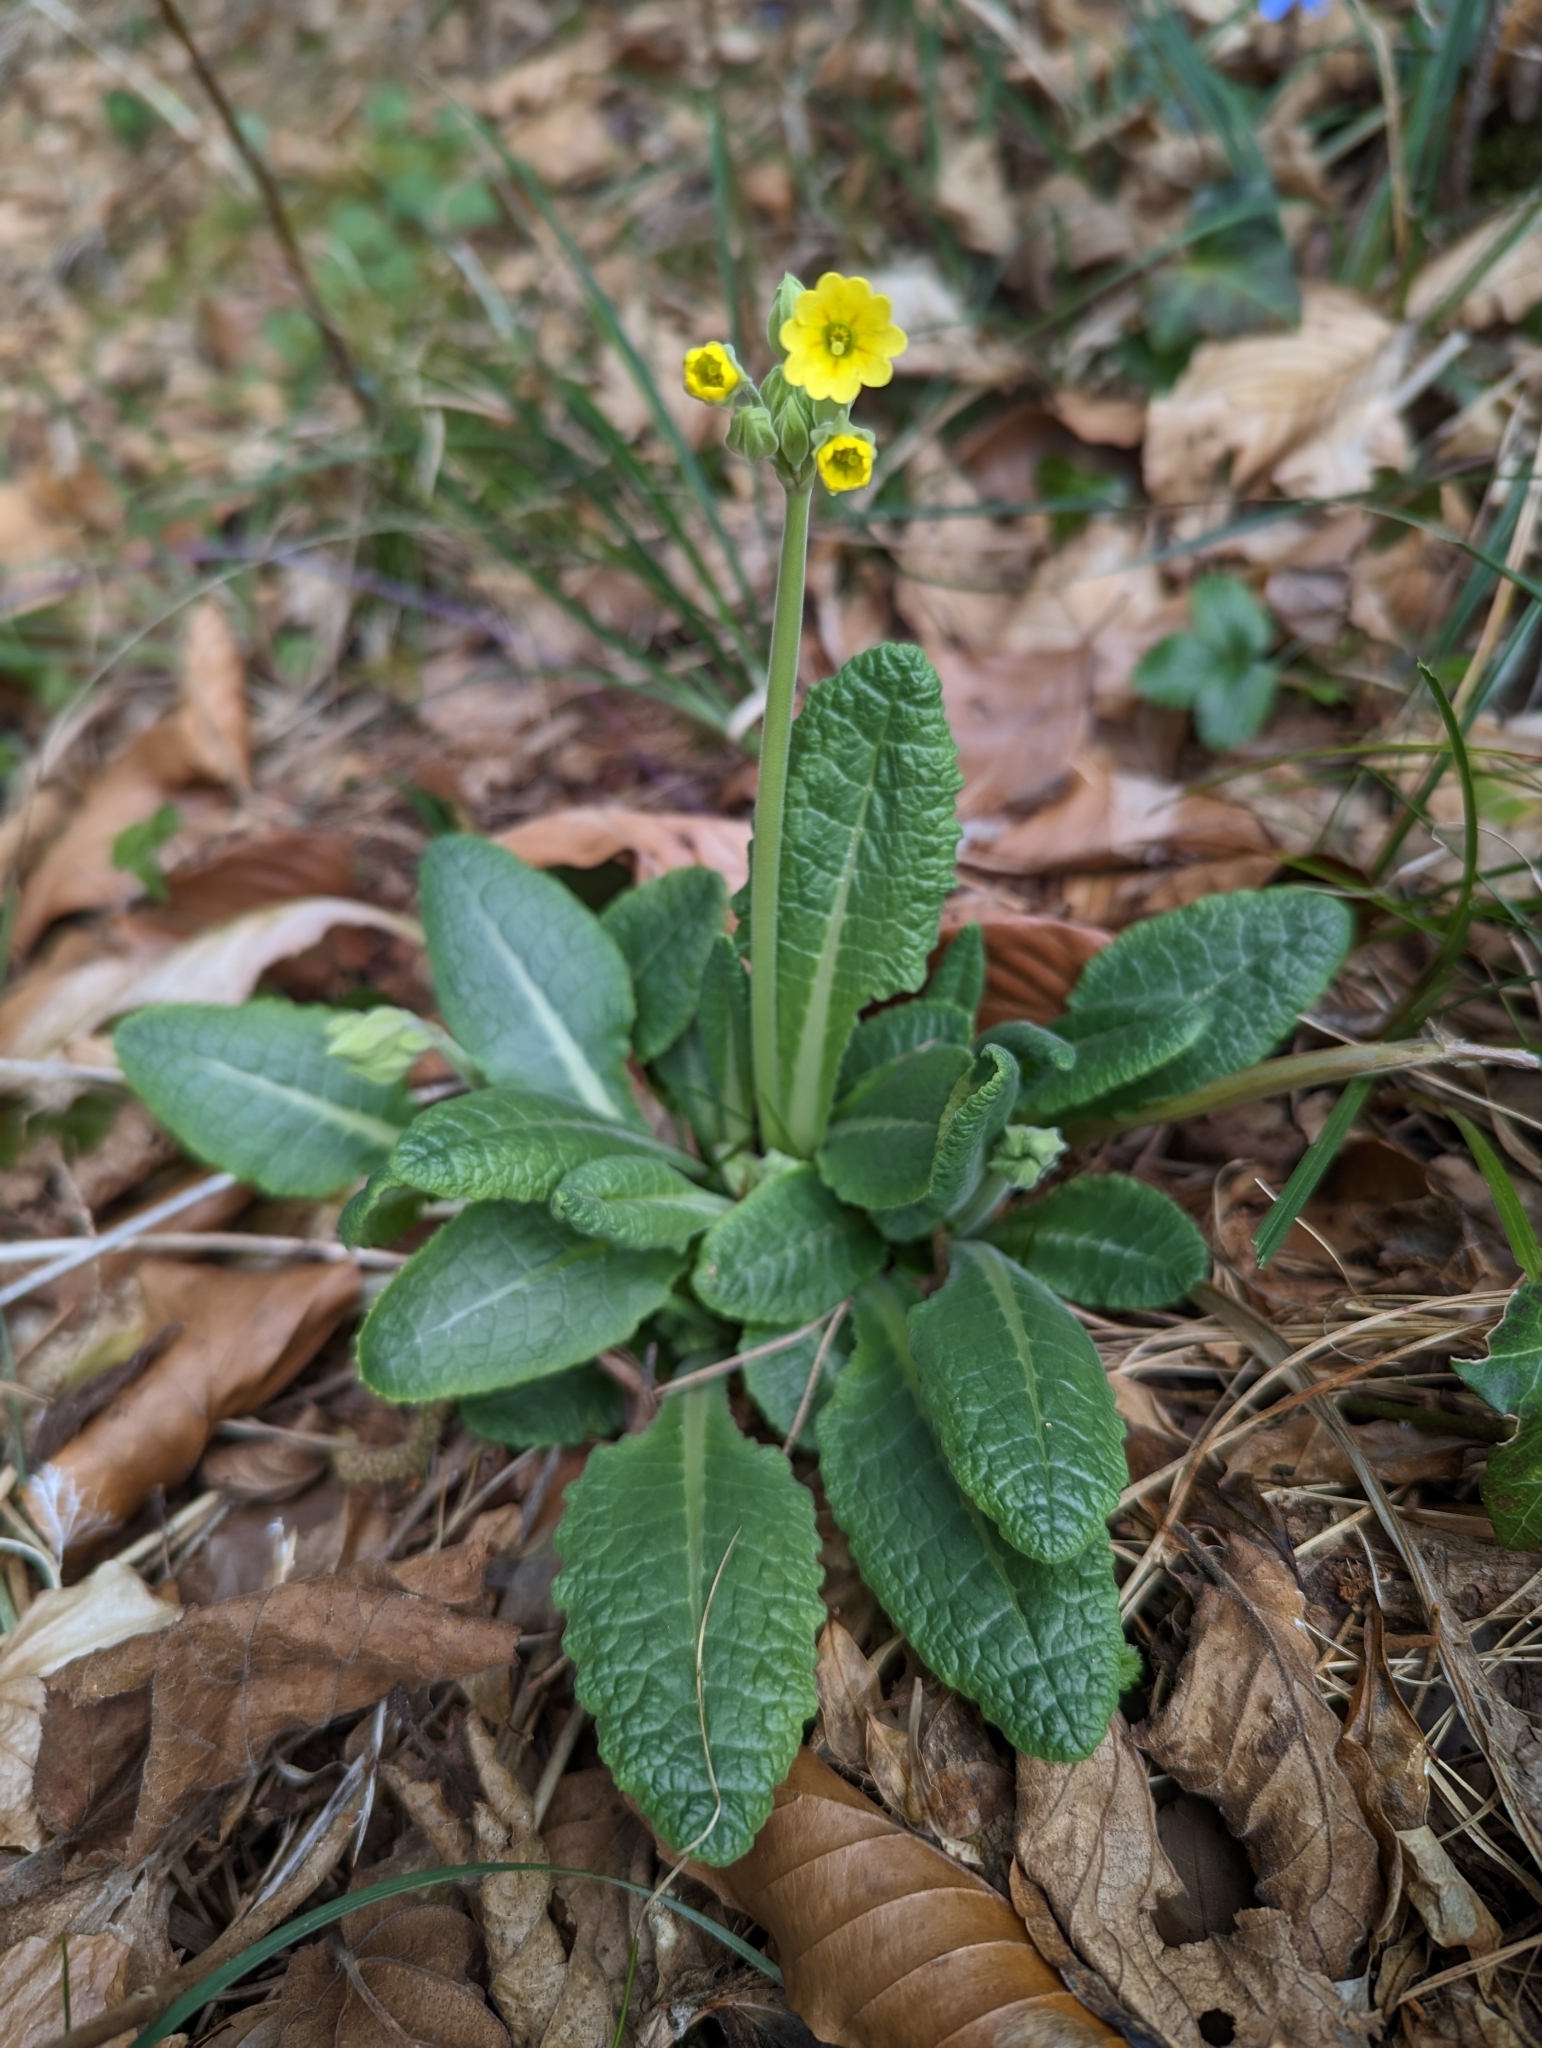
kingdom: Plantae
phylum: Tracheophyta
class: Magnoliopsida
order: Ericales
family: Primulaceae
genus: Primula
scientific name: Primula veris
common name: Cowslip
